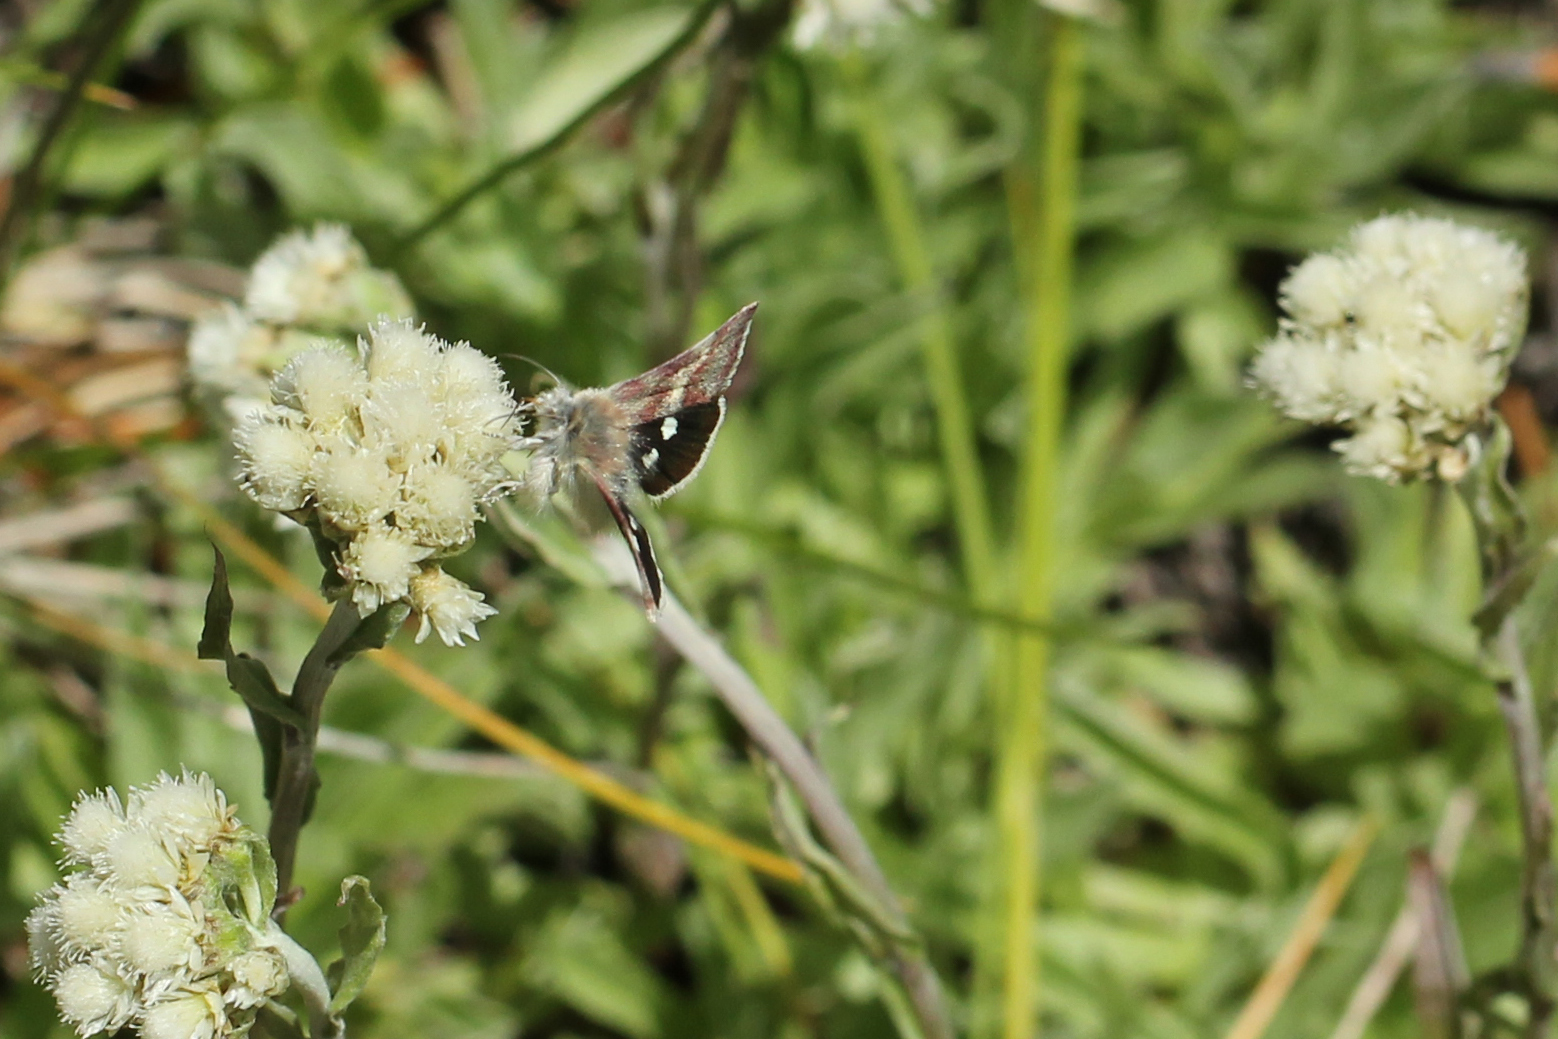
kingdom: Animalia
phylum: Arthropoda
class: Insecta
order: Lepidoptera
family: Noctuidae
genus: Eutricopis
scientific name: Eutricopis nexilis
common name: White-spotted midget moth
